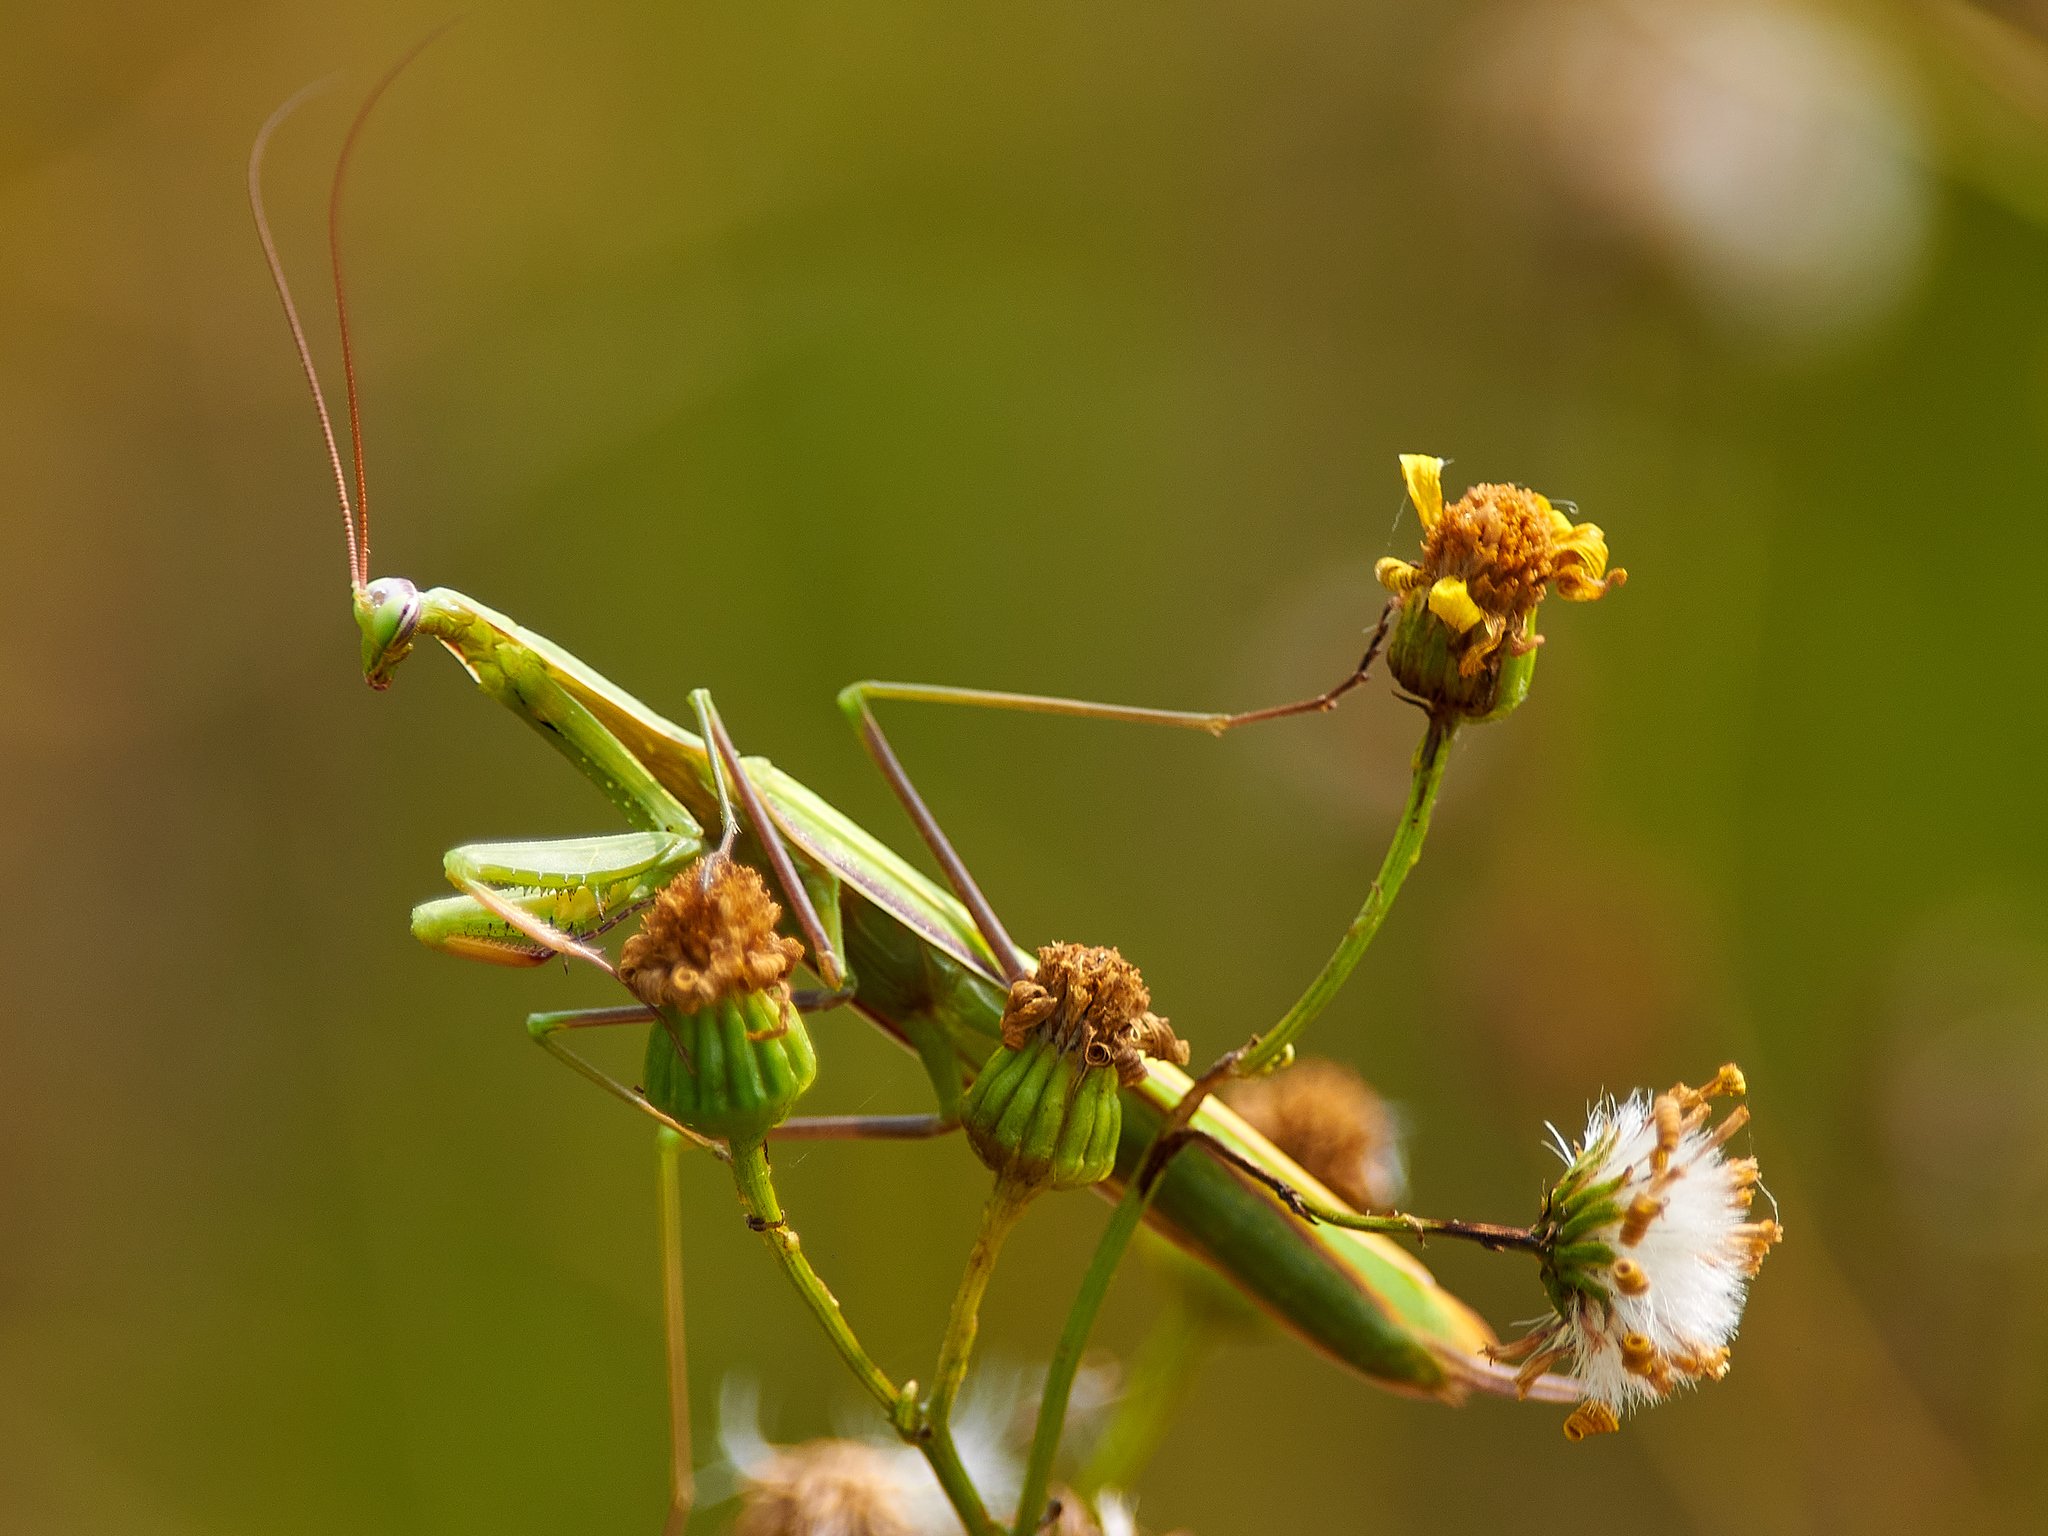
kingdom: Animalia
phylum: Arthropoda
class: Insecta
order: Mantodea
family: Mantidae
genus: Mantis
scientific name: Mantis religiosa
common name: Praying mantis
